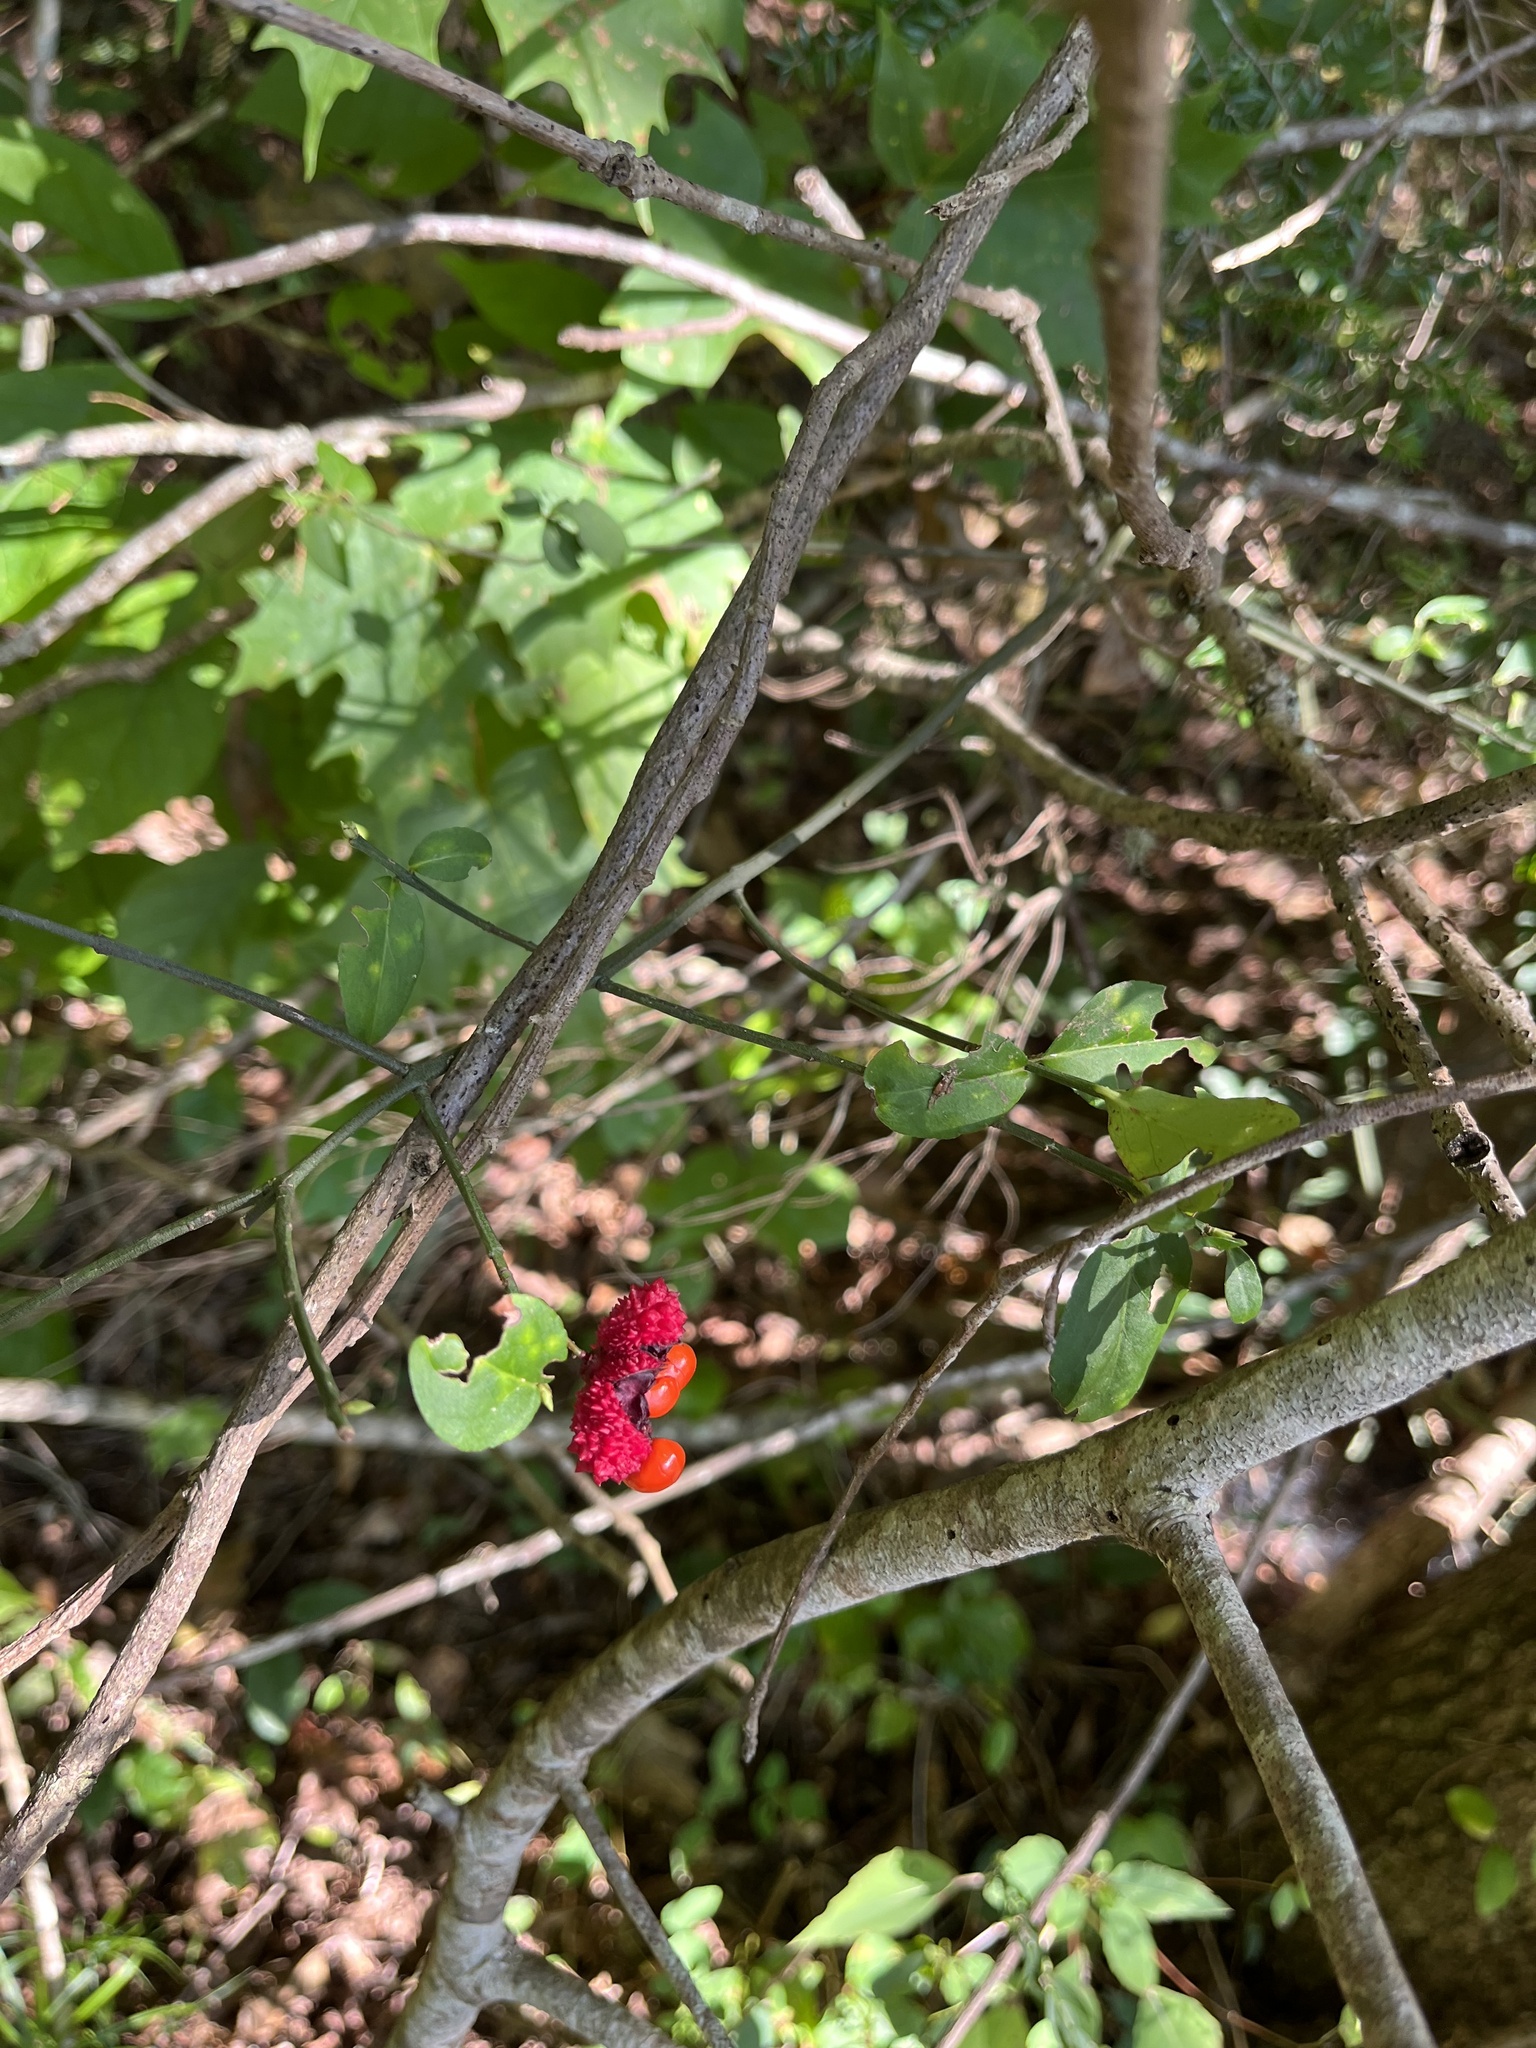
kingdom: Plantae
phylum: Tracheophyta
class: Magnoliopsida
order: Celastrales
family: Celastraceae
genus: Euonymus
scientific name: Euonymus americanus
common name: Bursting-heart
